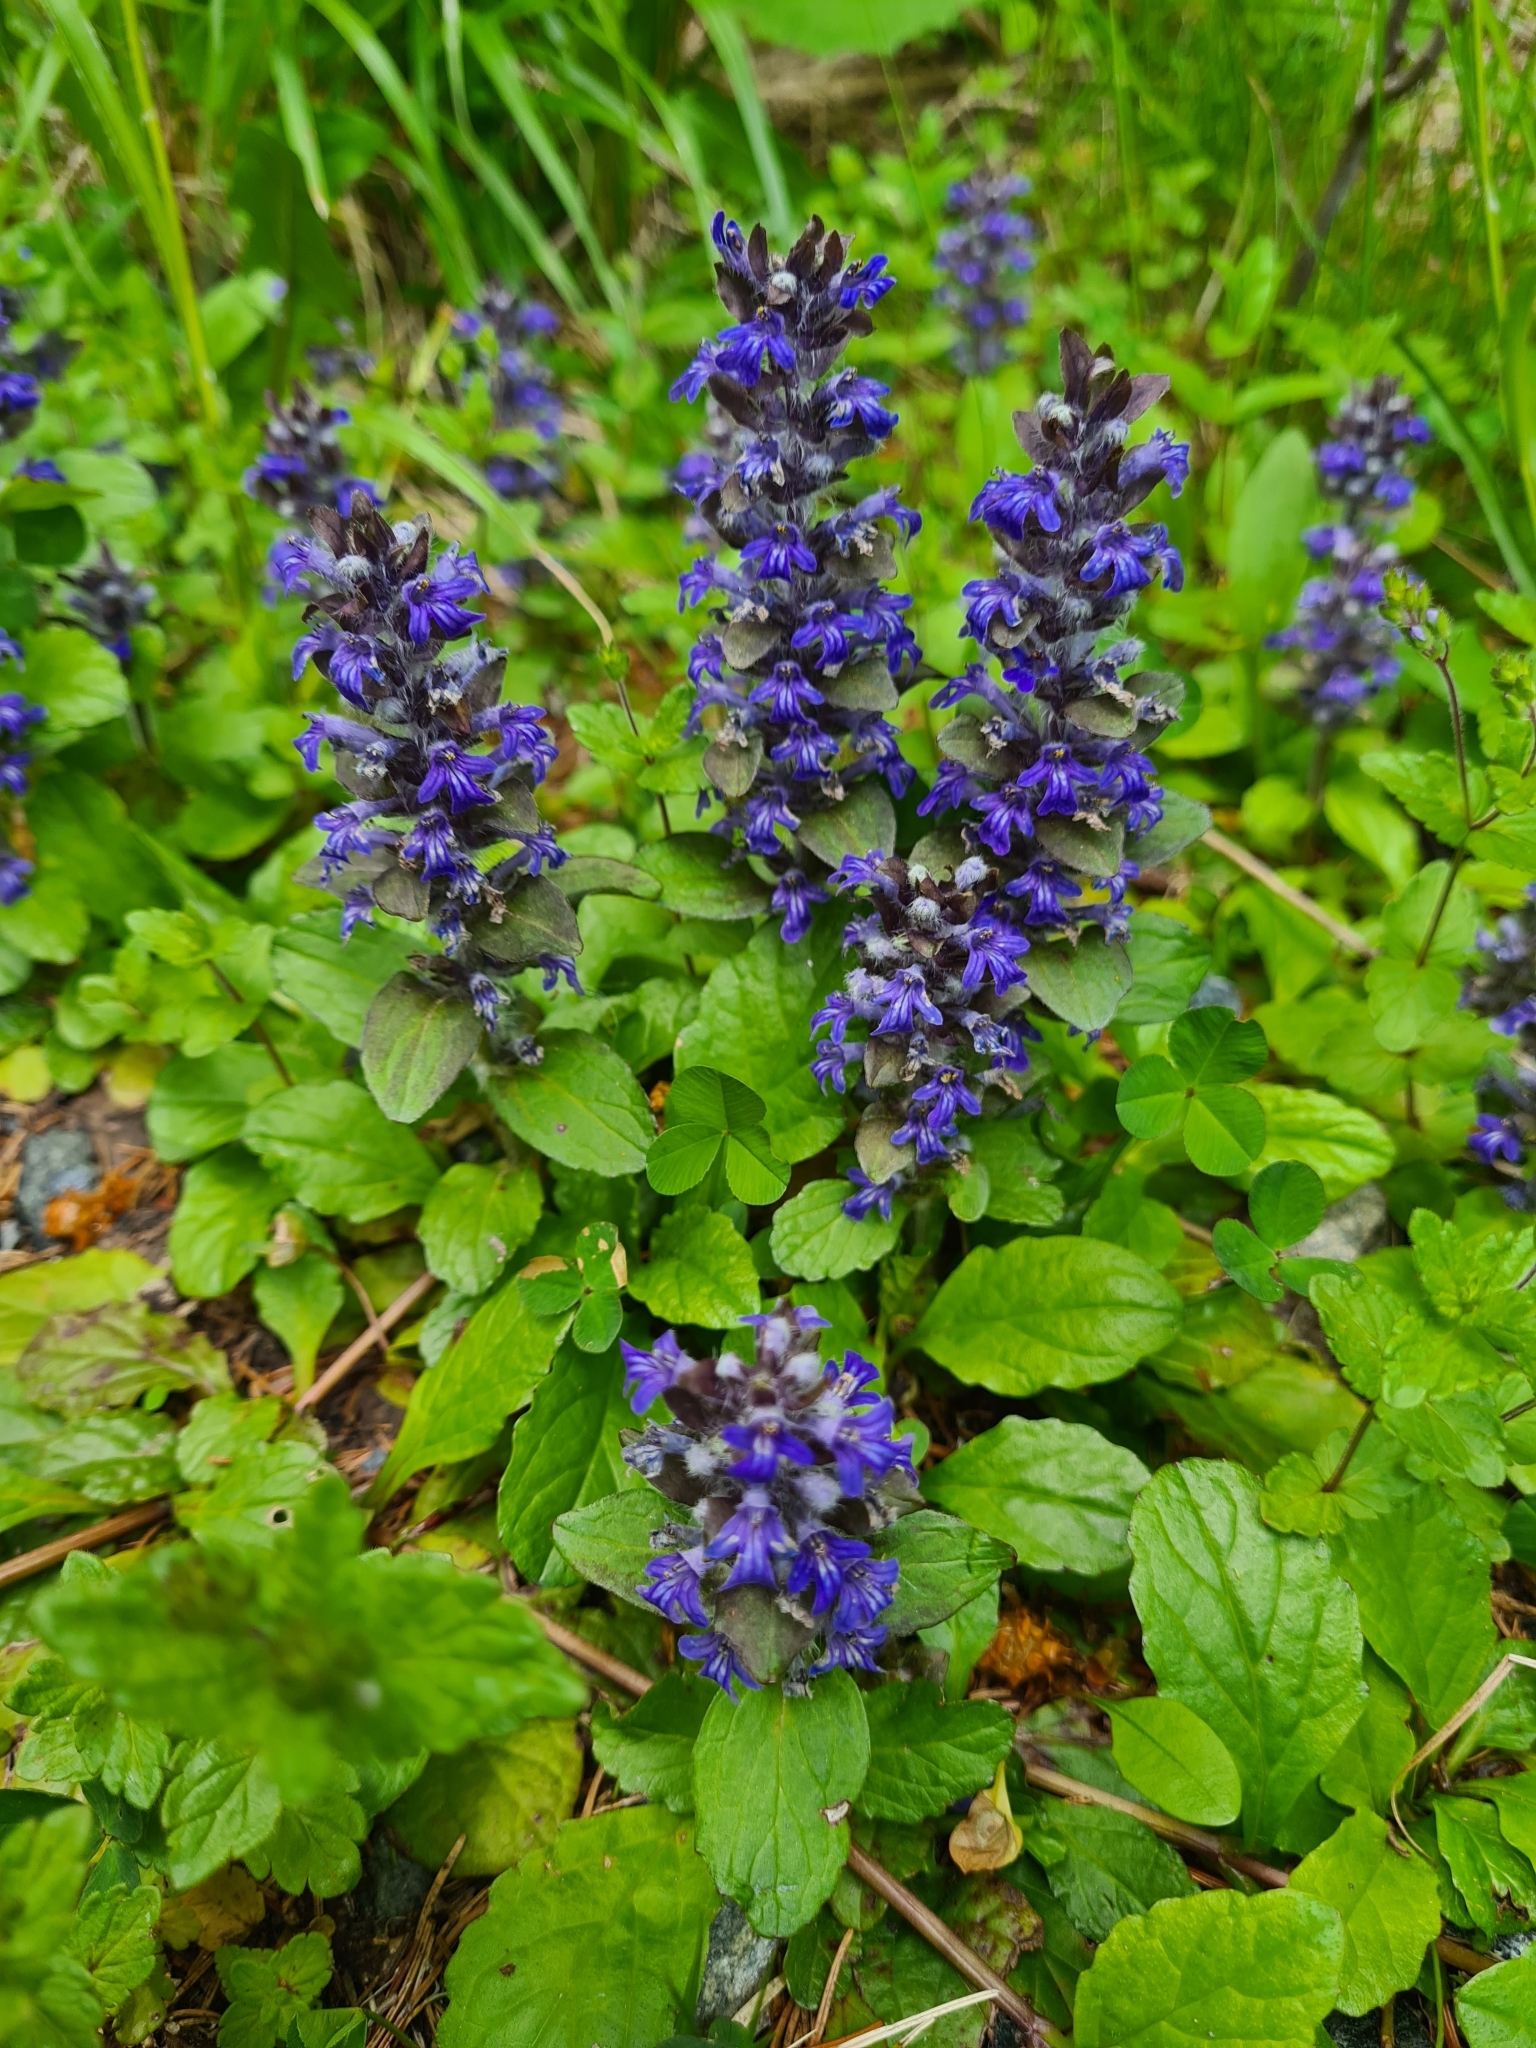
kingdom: Plantae
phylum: Tracheophyta
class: Magnoliopsida
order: Lamiales
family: Lamiaceae
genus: Ajuga
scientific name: Ajuga reptans
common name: Bugle
